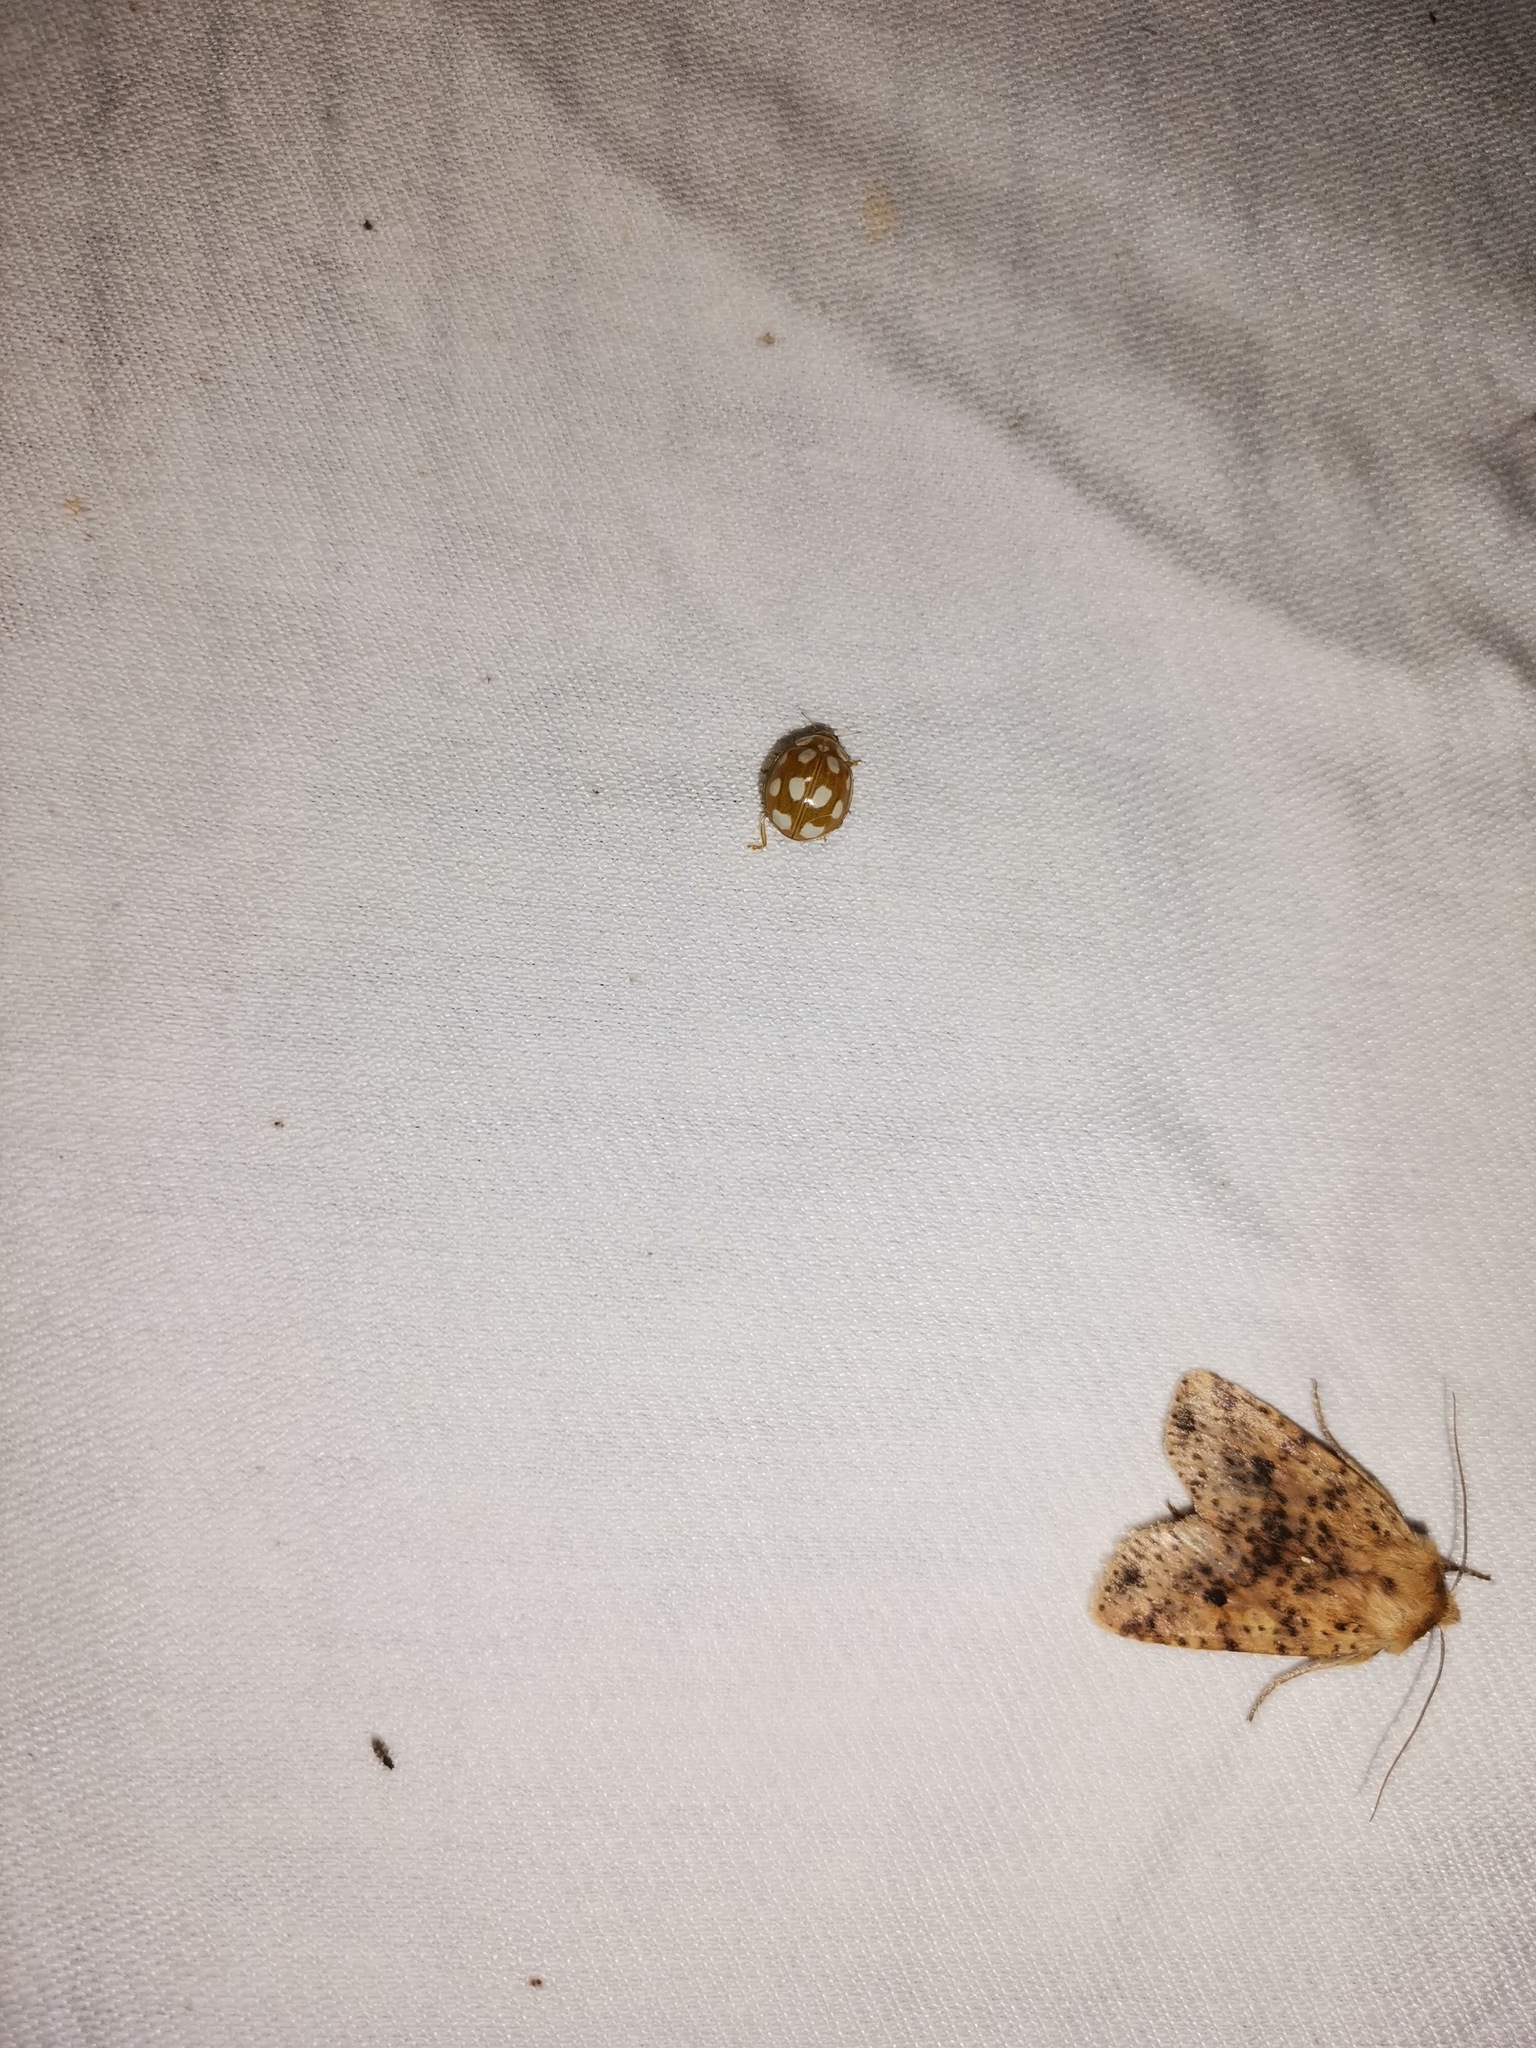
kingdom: Animalia
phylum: Arthropoda
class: Insecta
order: Coleoptera
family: Coccinellidae
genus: Calvia
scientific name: Calvia decemguttata
